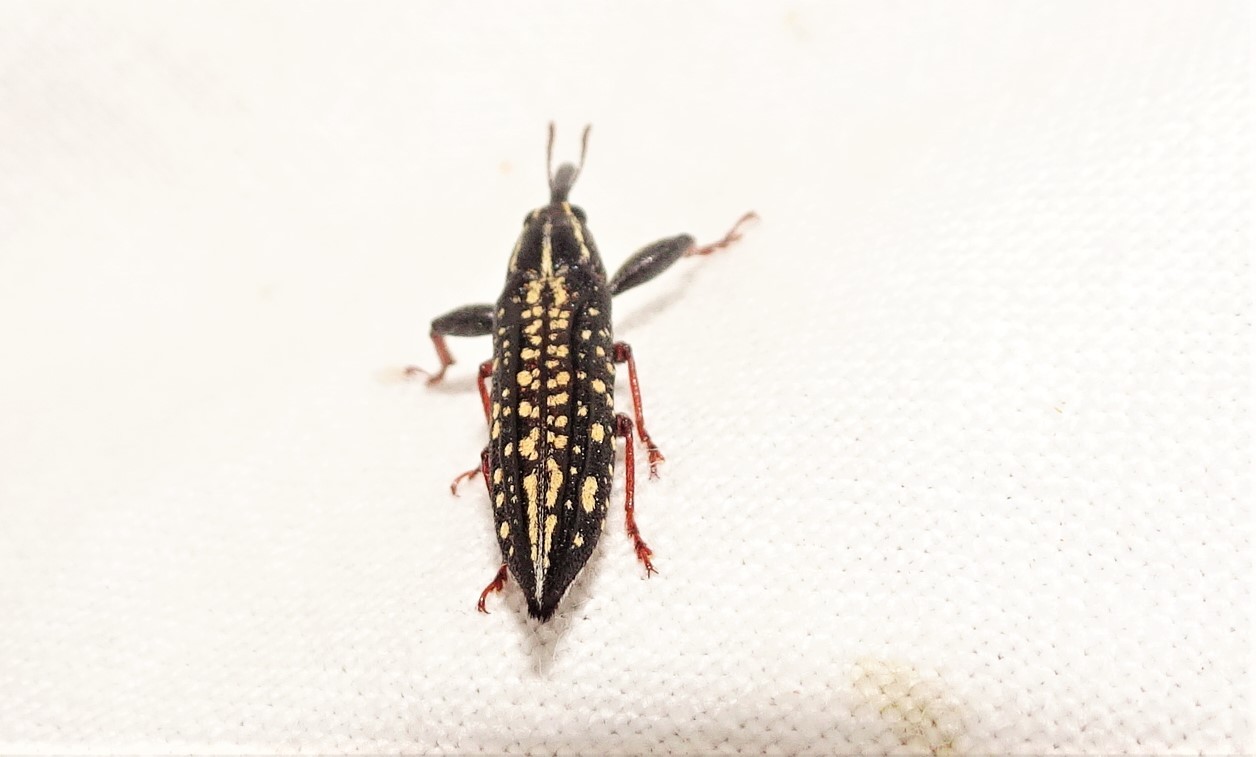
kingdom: Animalia
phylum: Arthropoda
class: Insecta
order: Coleoptera
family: Belidae
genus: Rhinotia
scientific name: Rhinotia lineata
